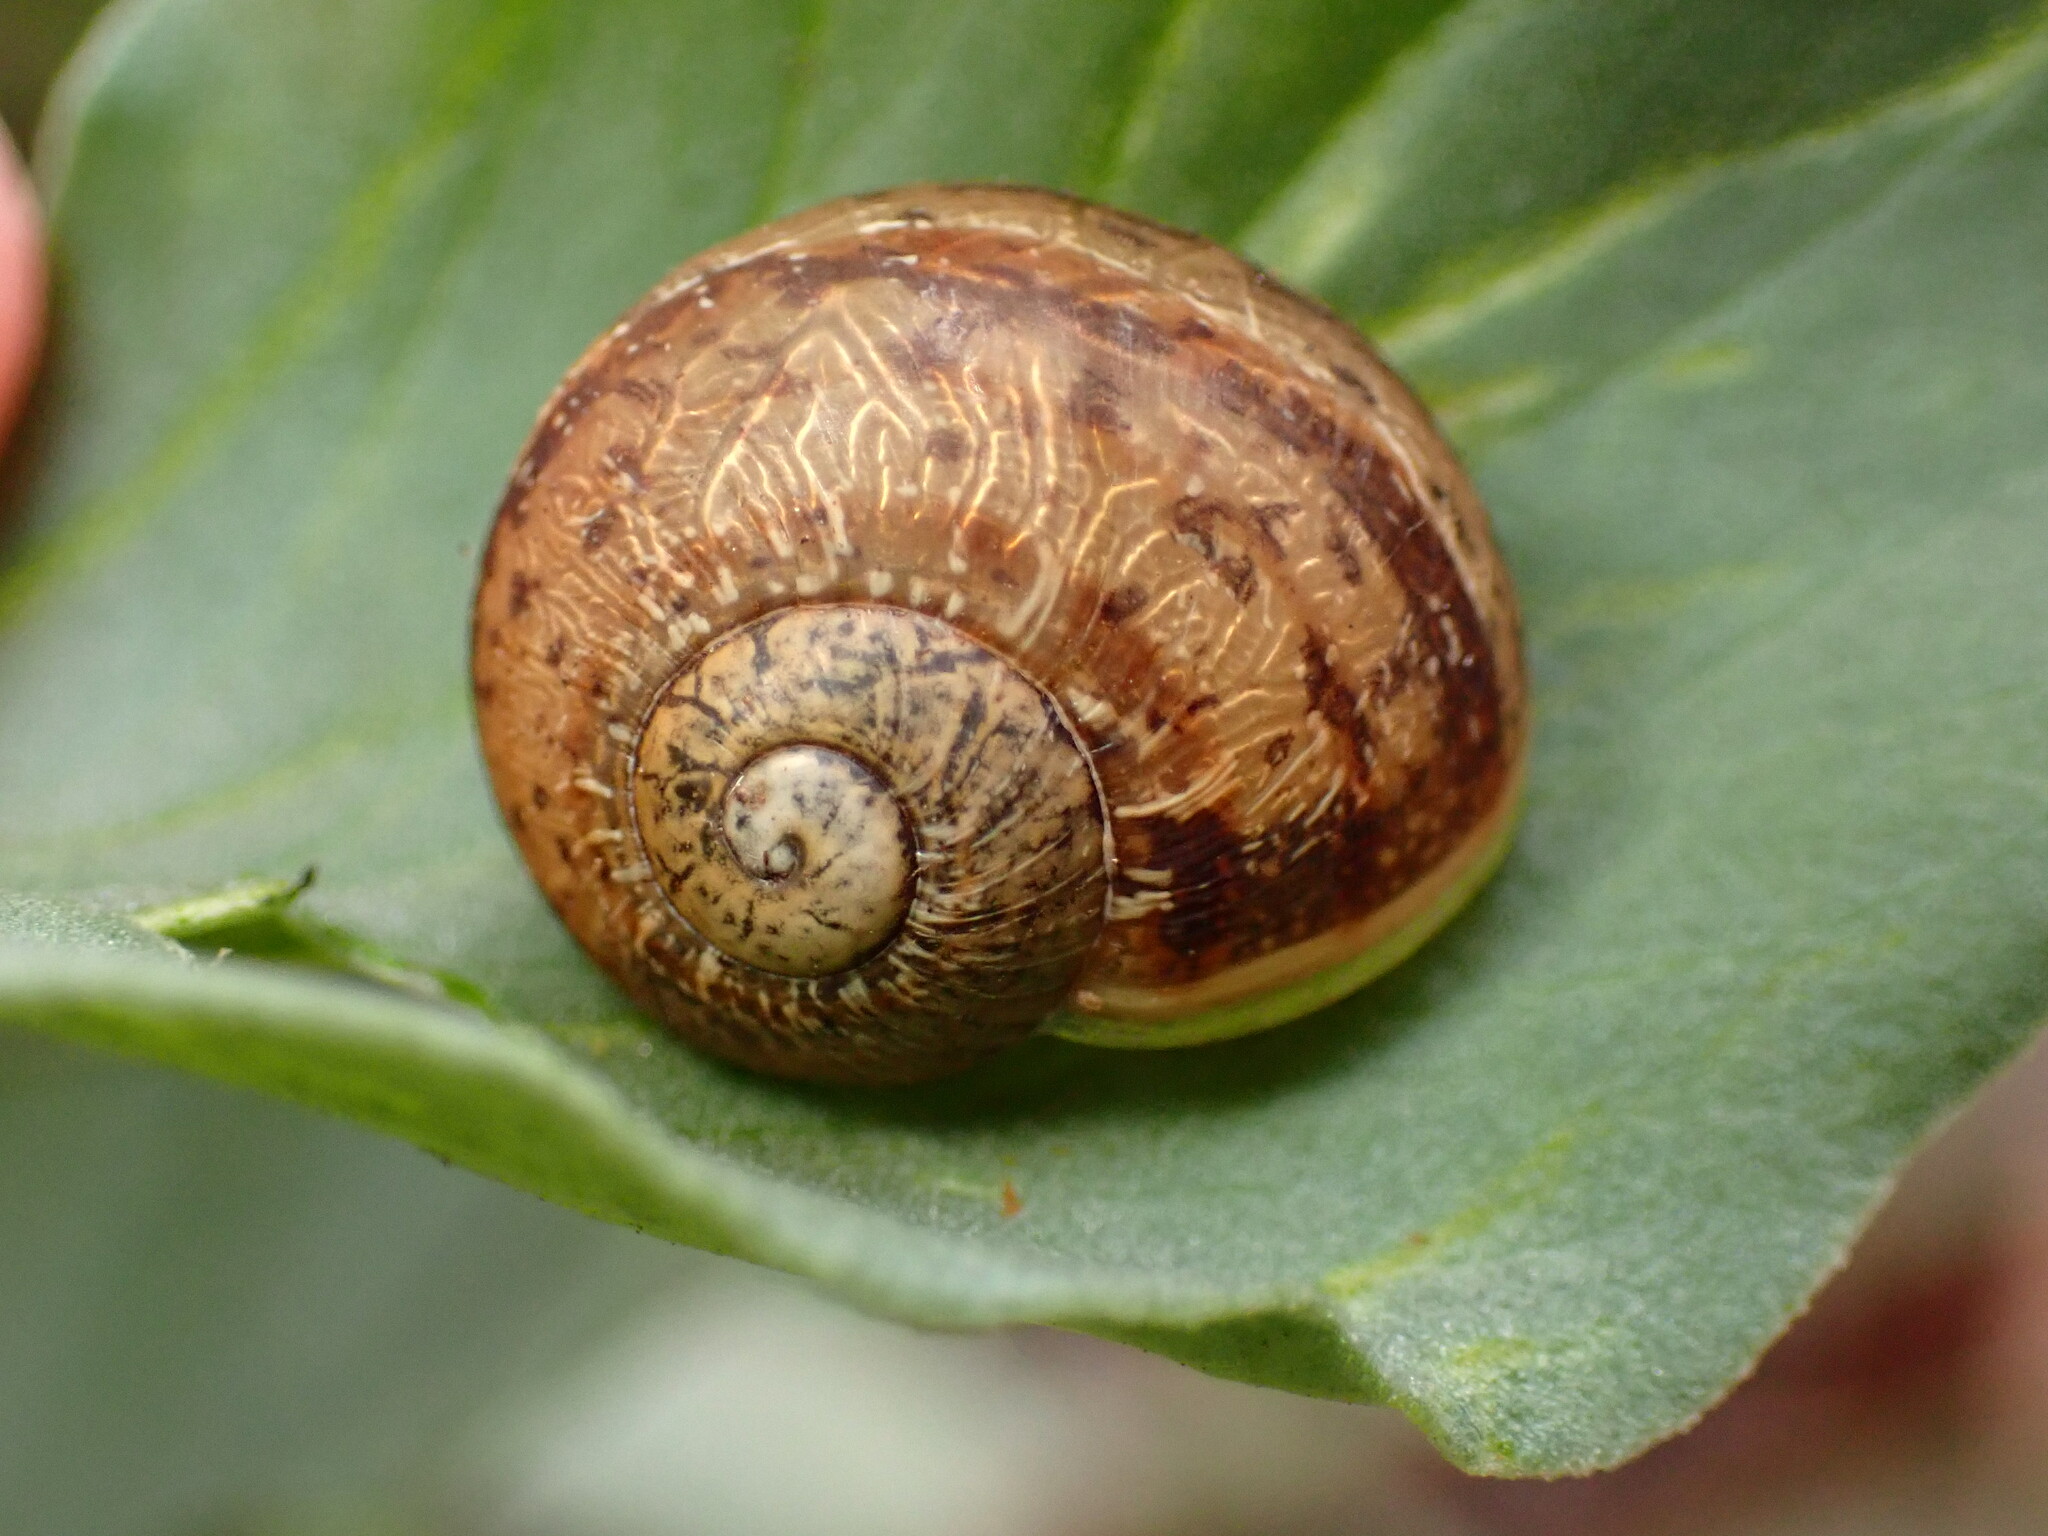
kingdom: Animalia
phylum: Mollusca
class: Gastropoda
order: Stylommatophora
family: Helicidae
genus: Cornu
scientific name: Cornu aspersum
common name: Brown garden snail
